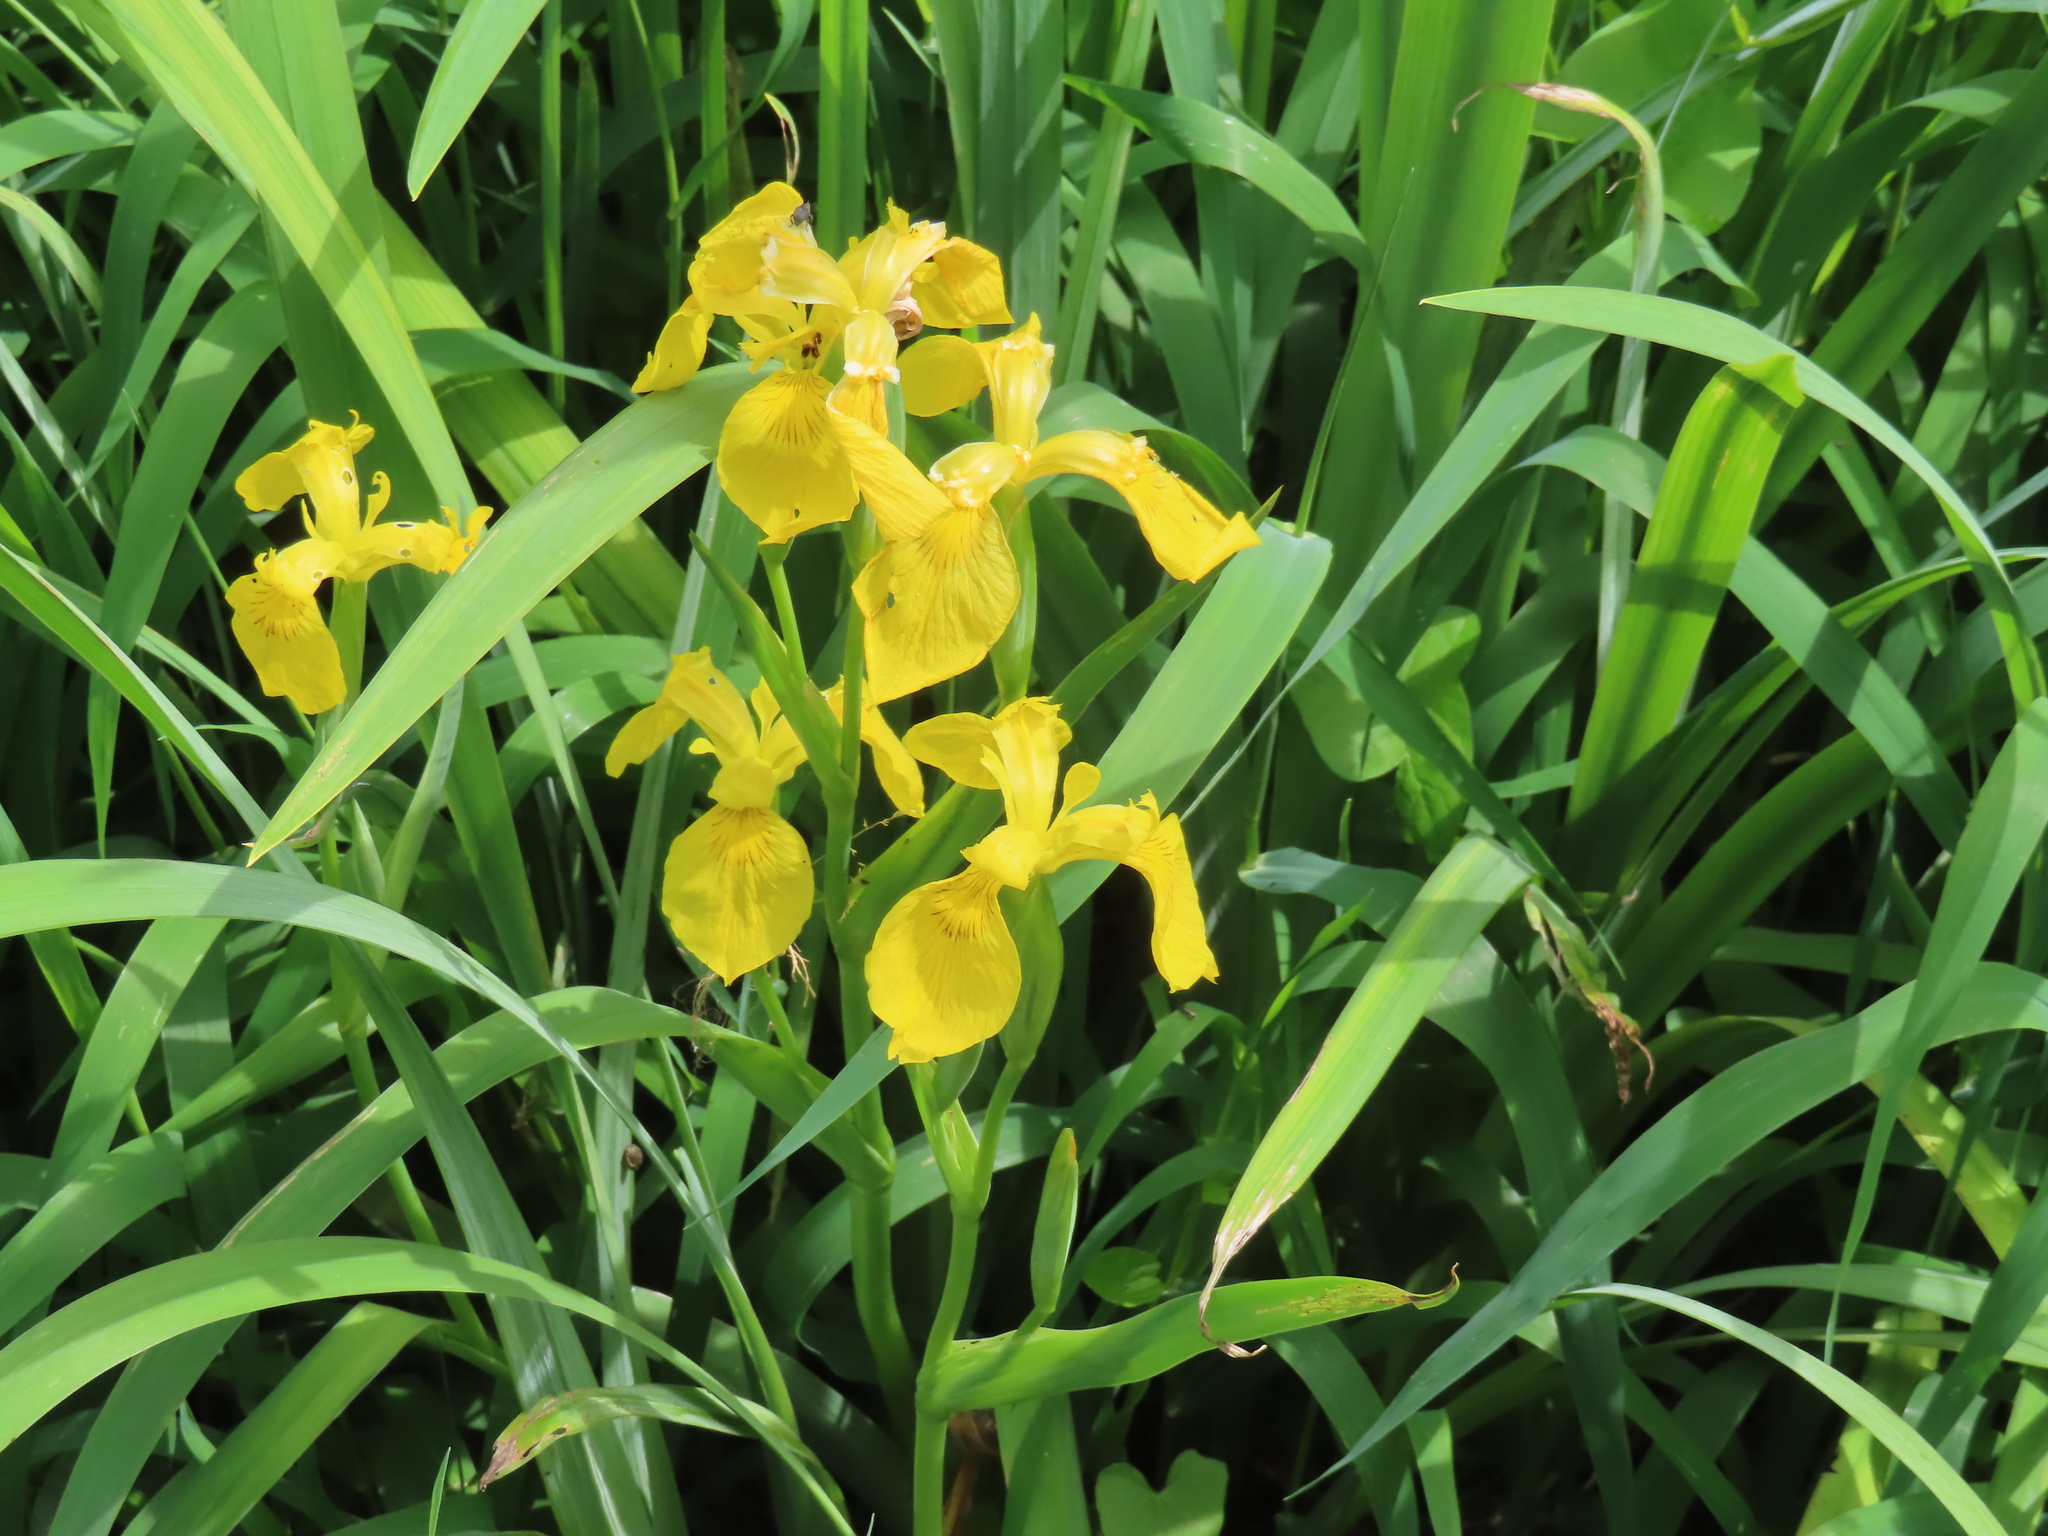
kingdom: Plantae
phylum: Tracheophyta
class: Liliopsida
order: Asparagales
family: Iridaceae
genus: Iris
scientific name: Iris pseudacorus
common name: Yellow flag
